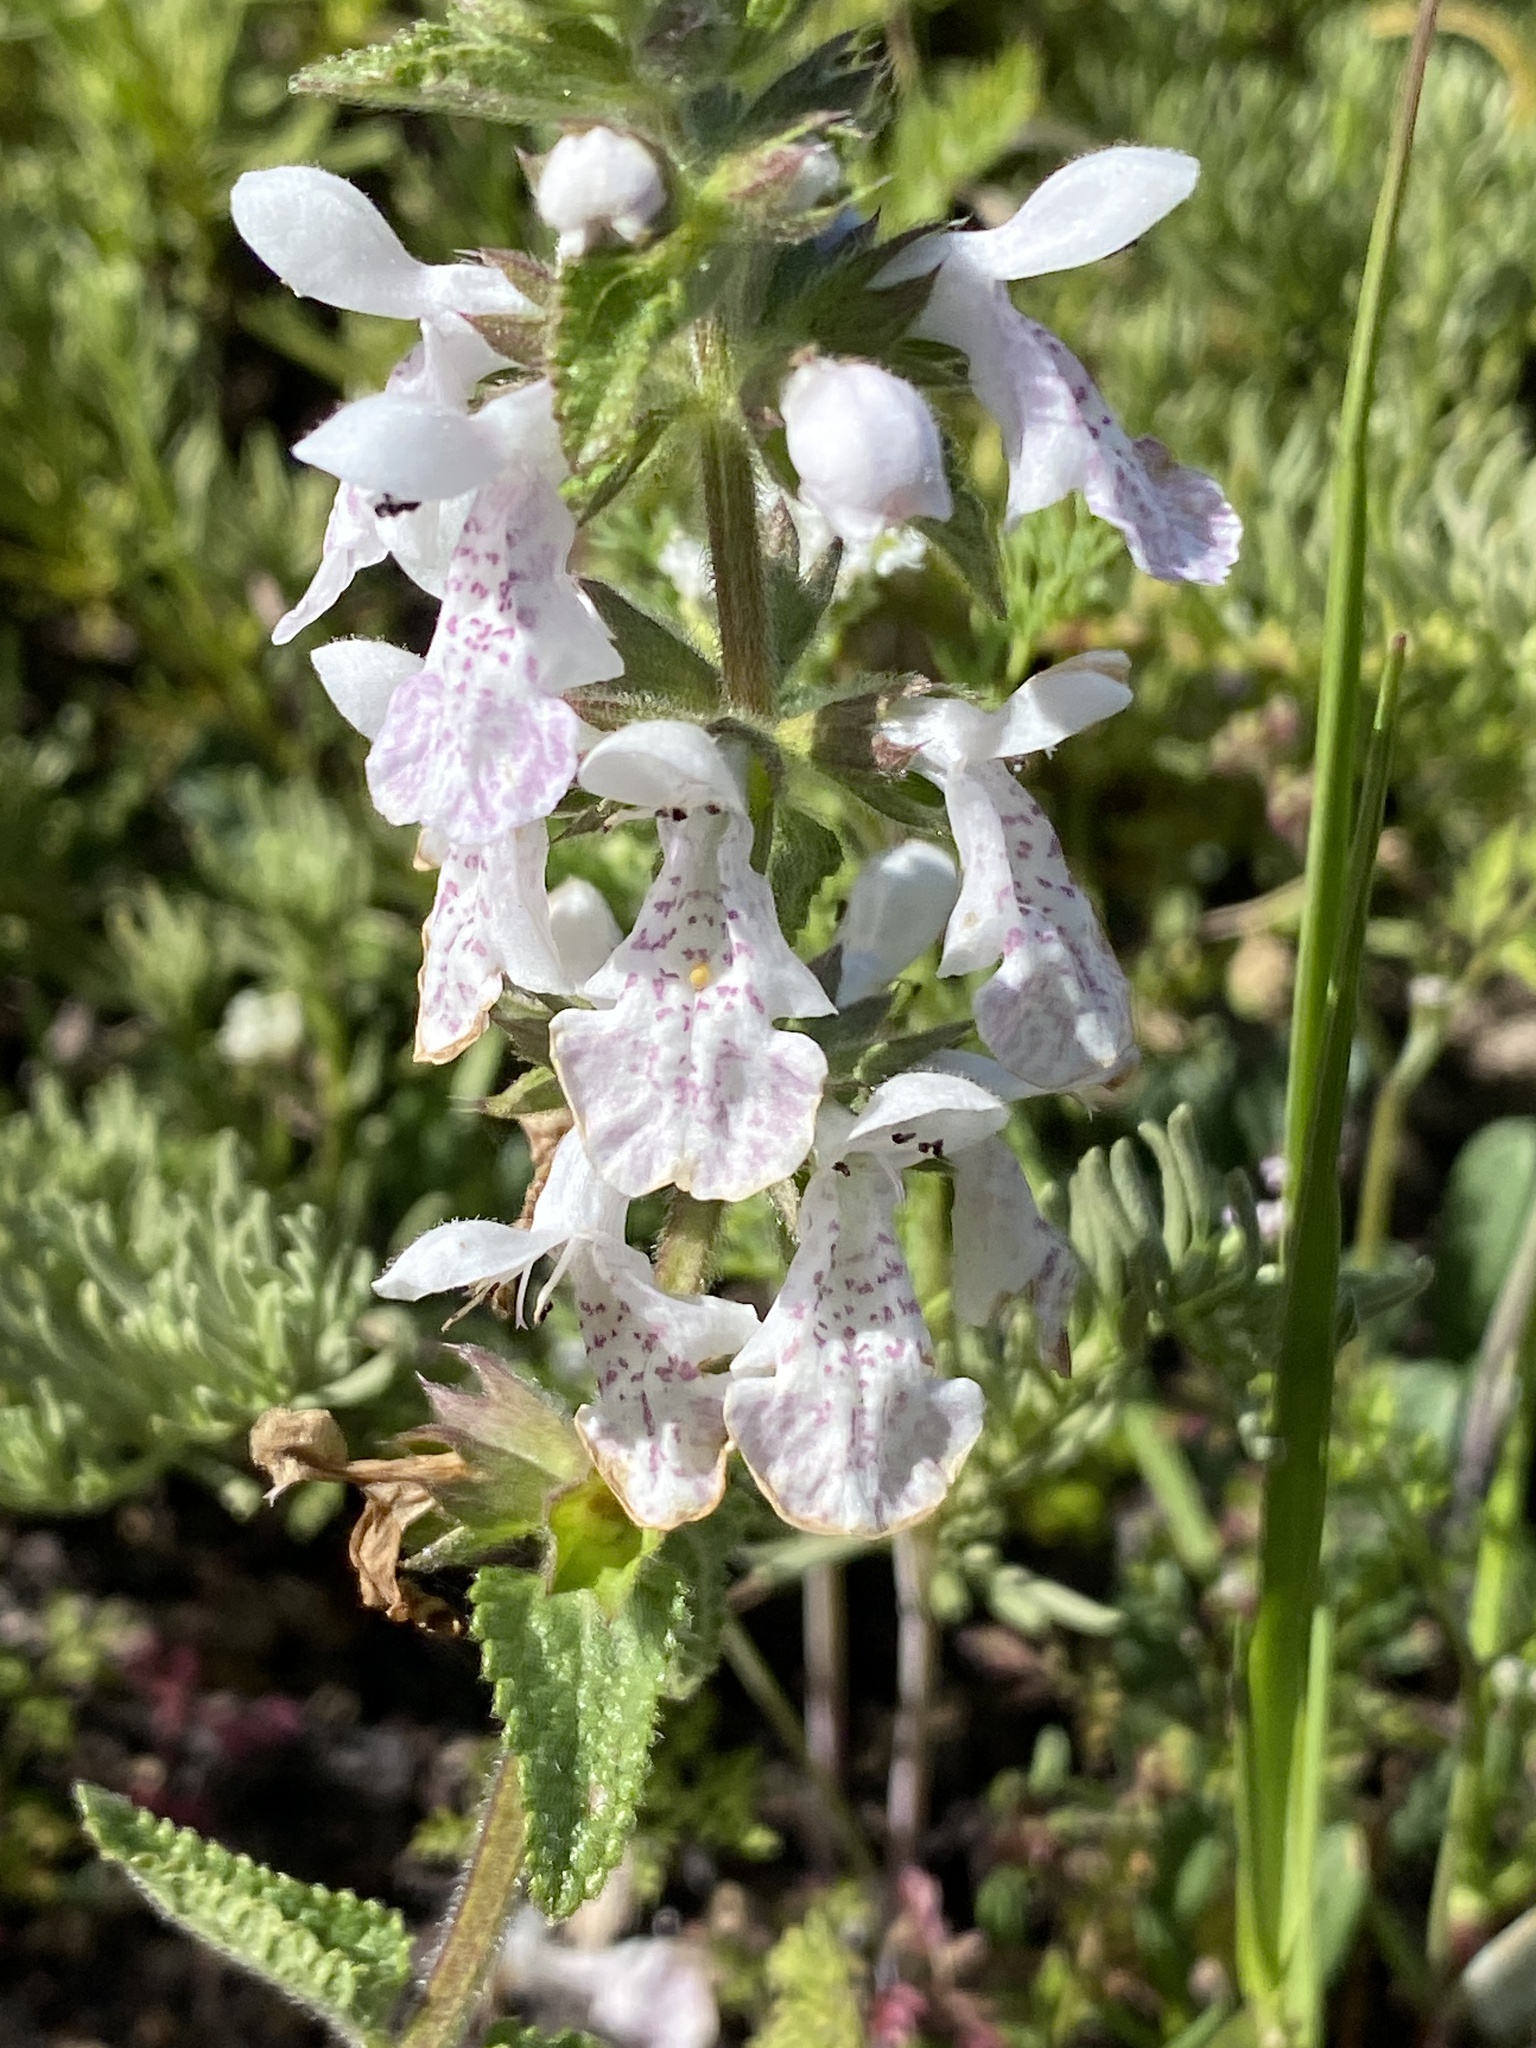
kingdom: Plantae
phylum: Tracheophyta
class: Magnoliopsida
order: Lamiales
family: Lamiaceae
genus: Stachys
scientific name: Stachys bolusii
